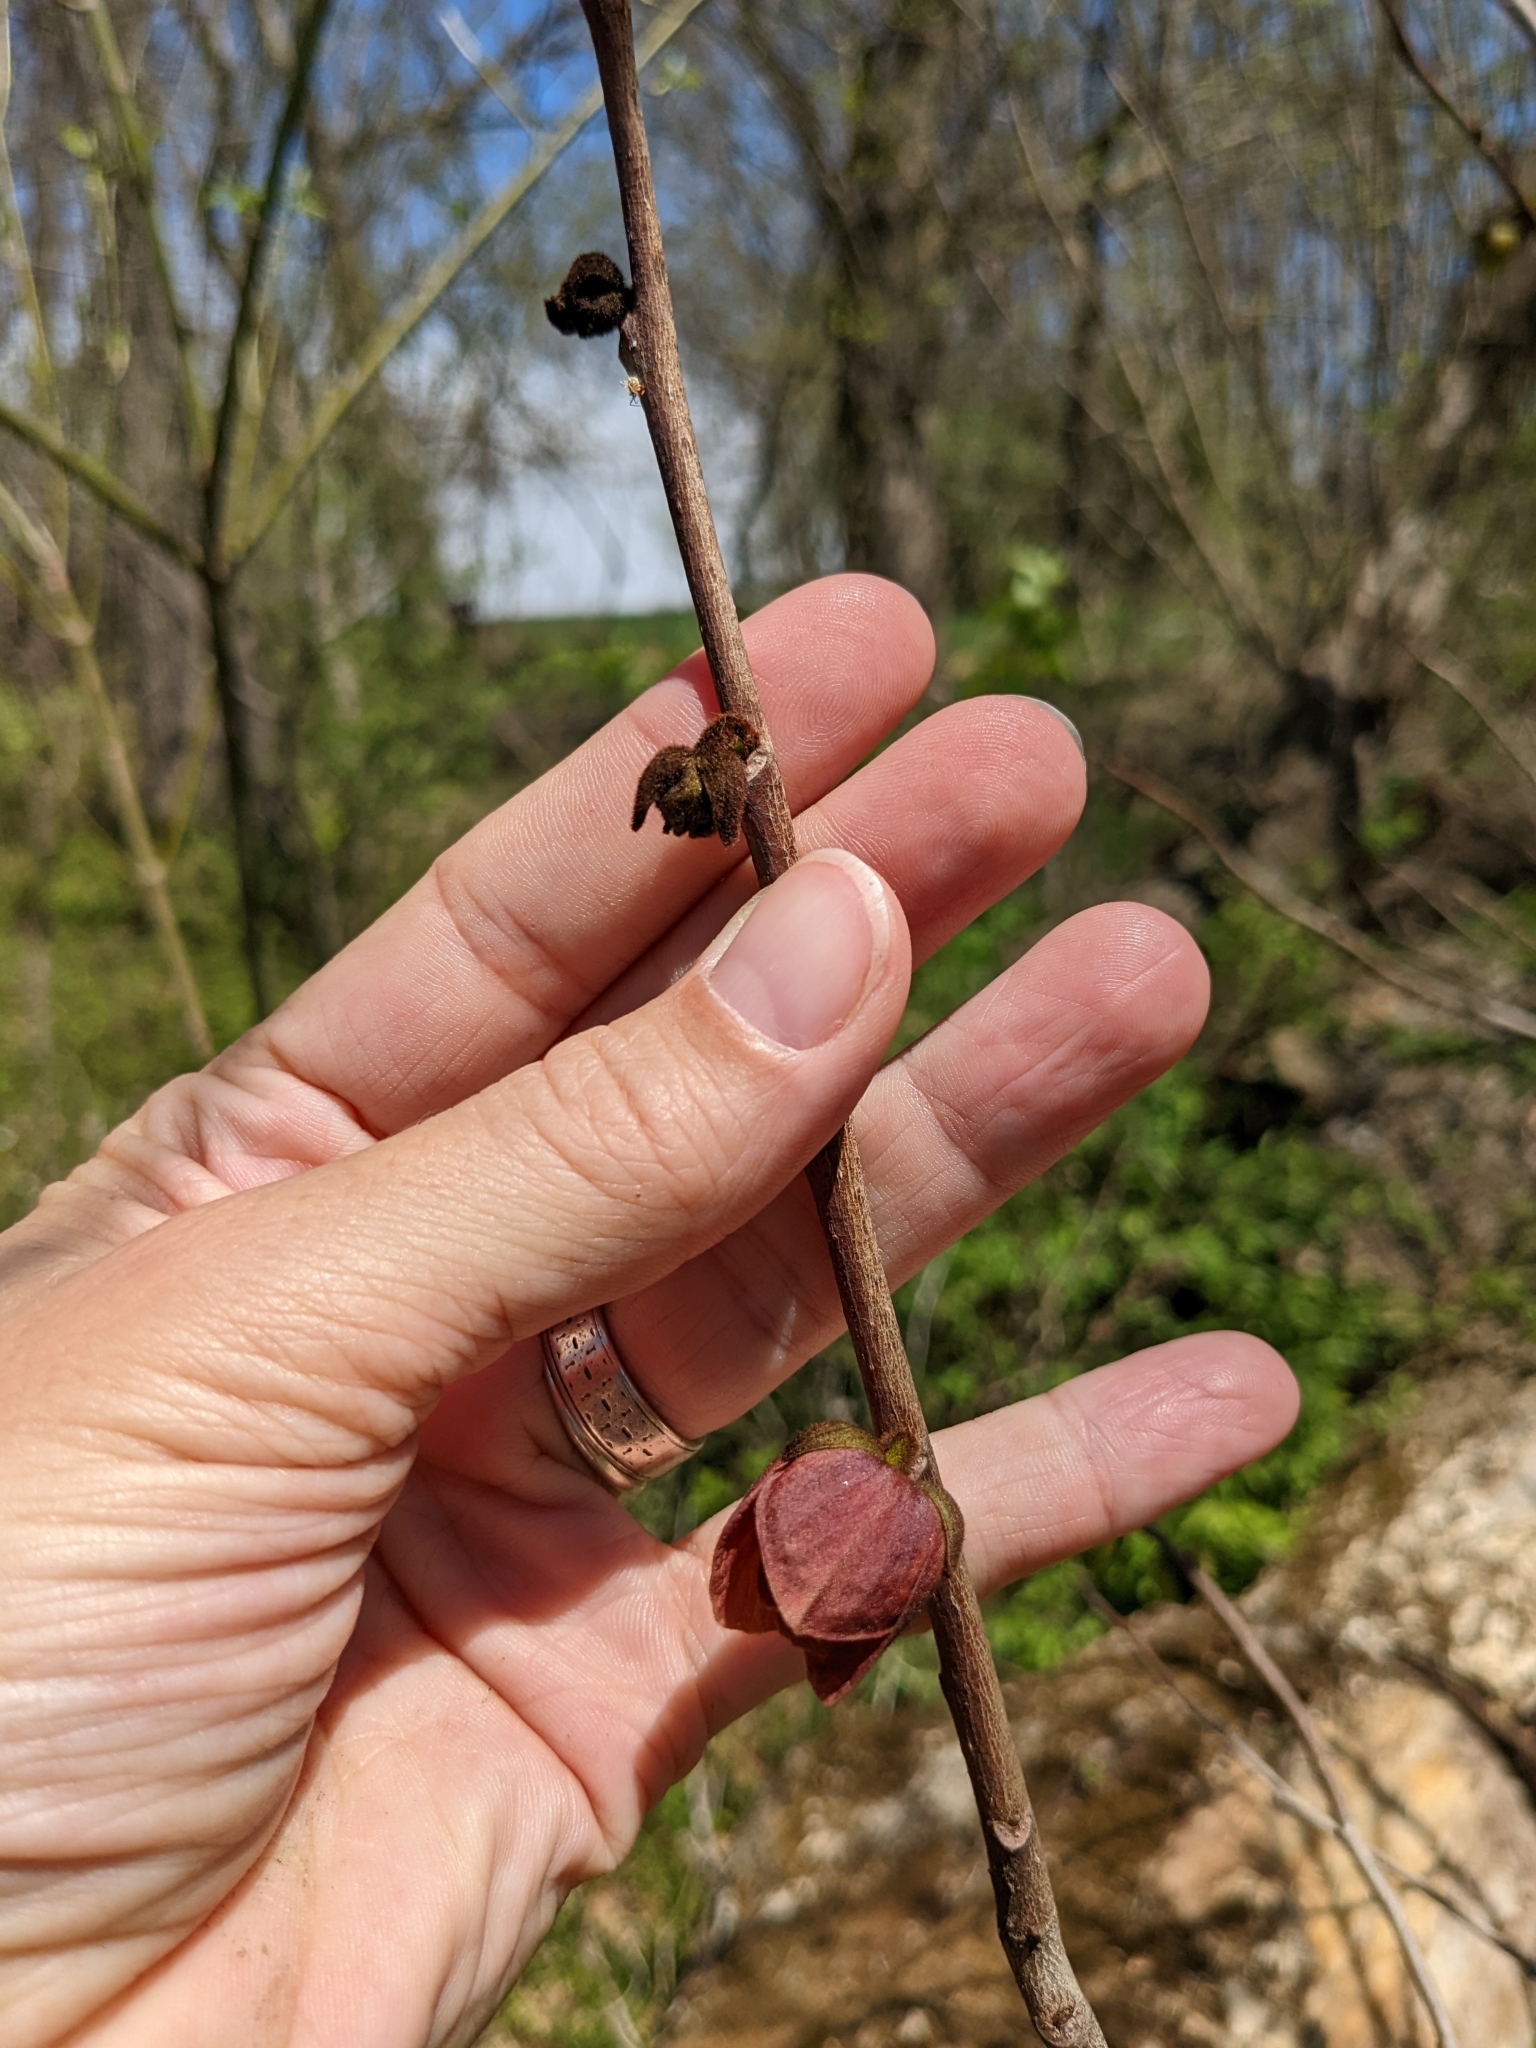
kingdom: Plantae
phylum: Tracheophyta
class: Magnoliopsida
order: Magnoliales
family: Annonaceae
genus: Asimina
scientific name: Asimina triloba
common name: Dog-banana
